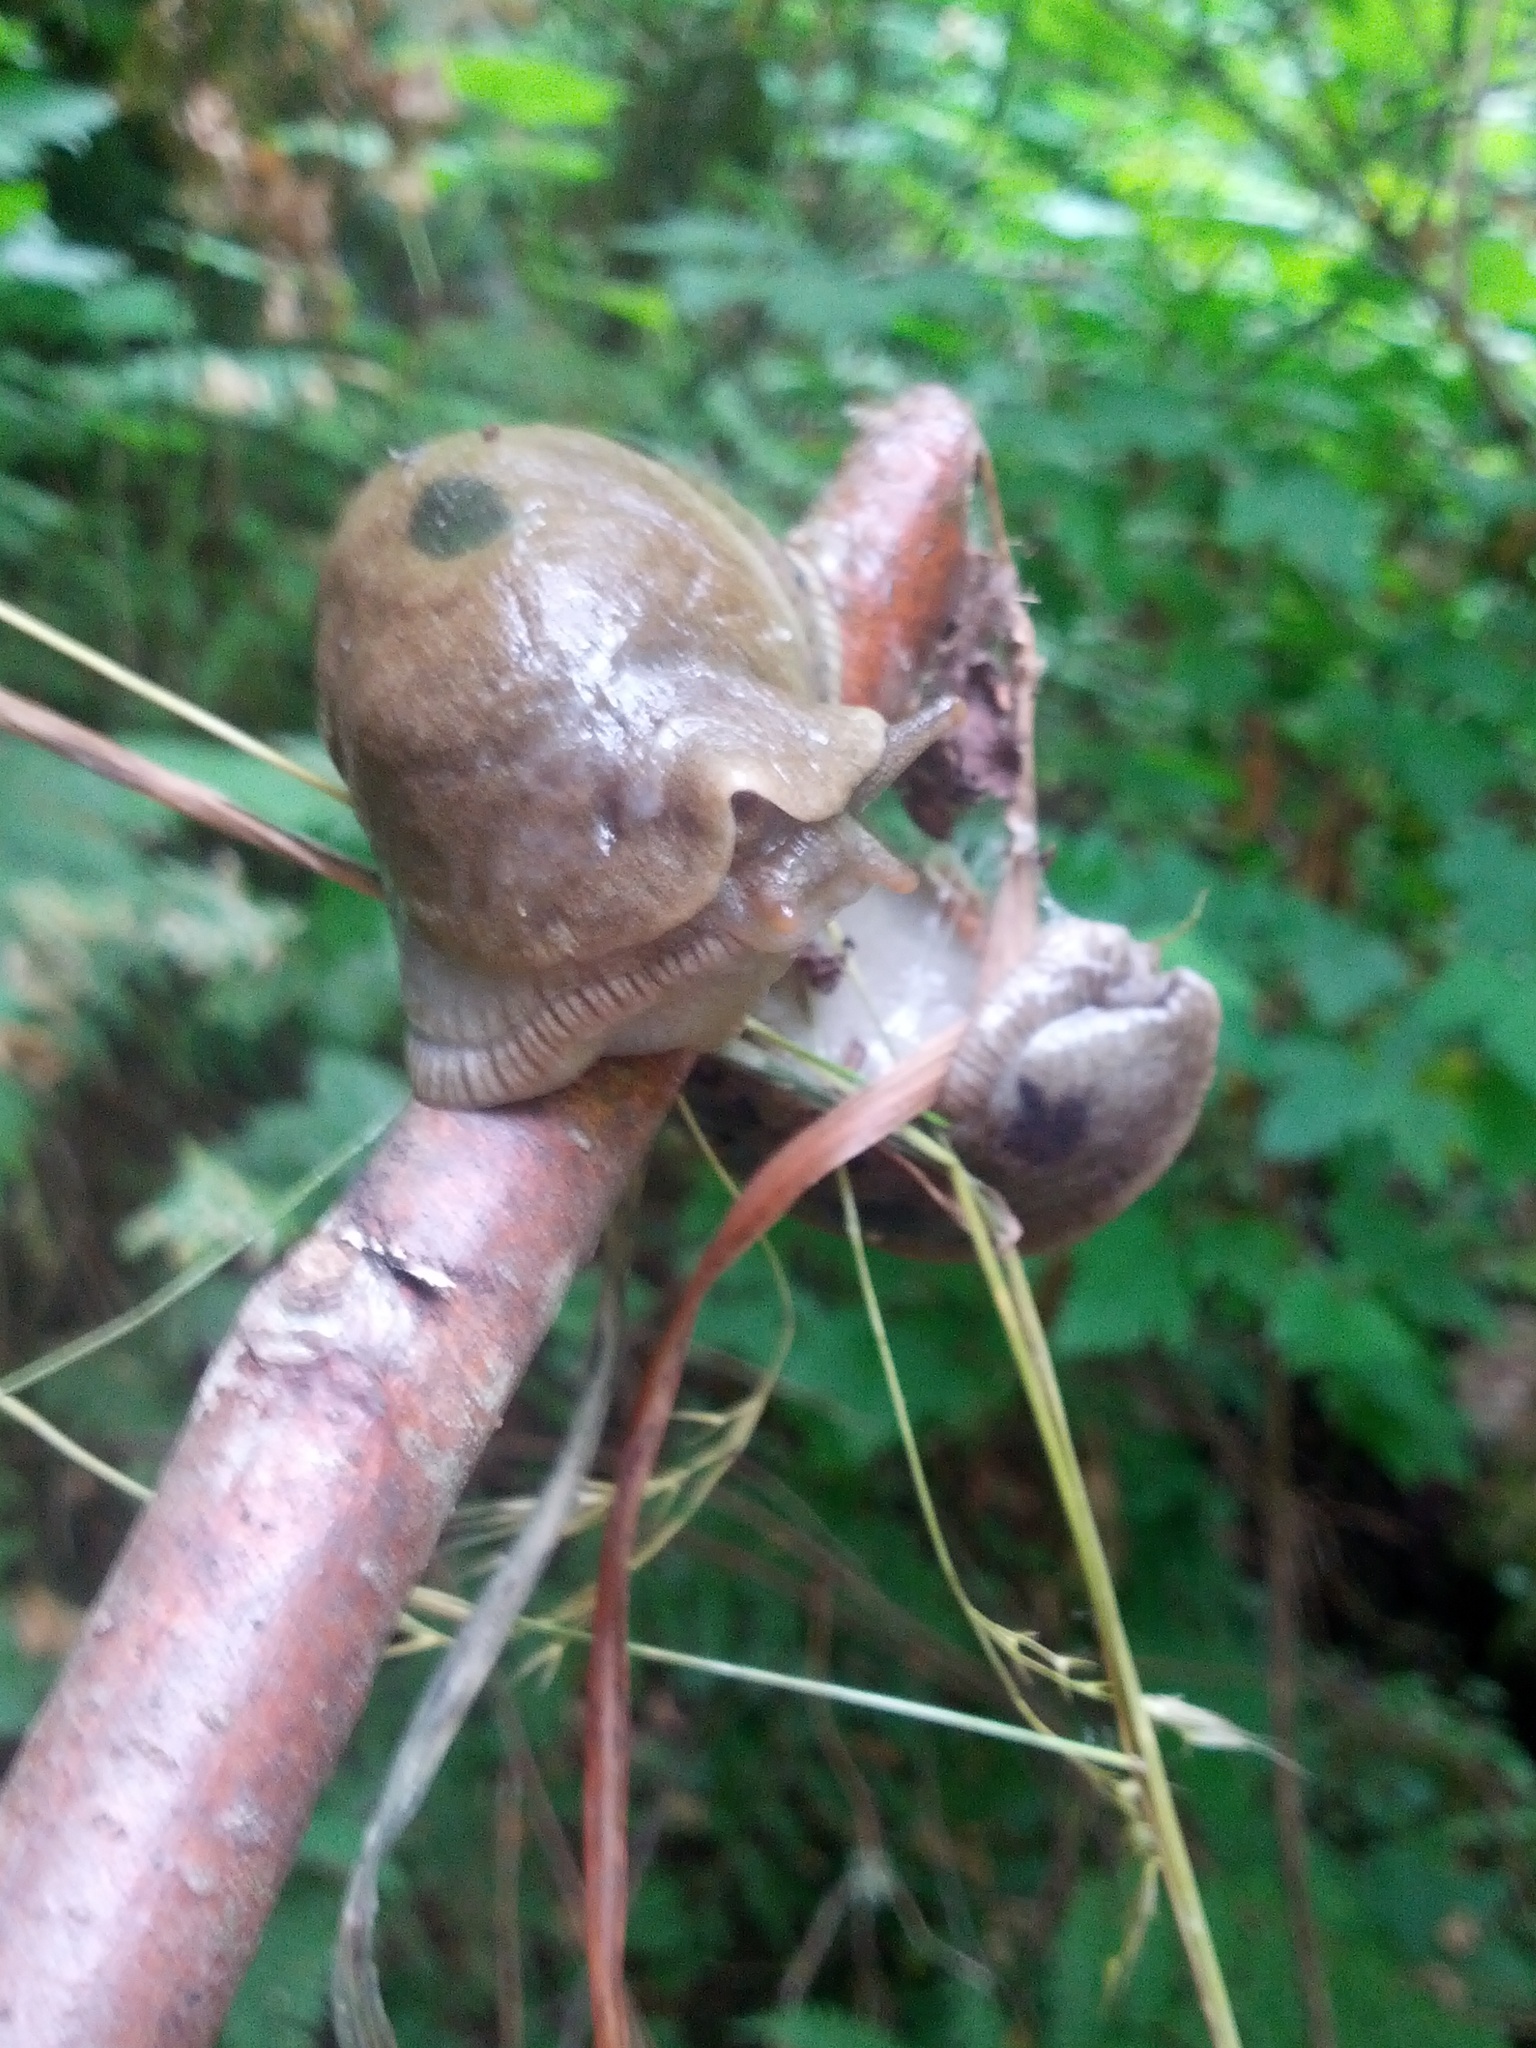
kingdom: Animalia
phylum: Mollusca
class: Gastropoda
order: Stylommatophora
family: Ariolimacidae
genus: Ariolimax
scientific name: Ariolimax columbianus
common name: Pacific banana slug
